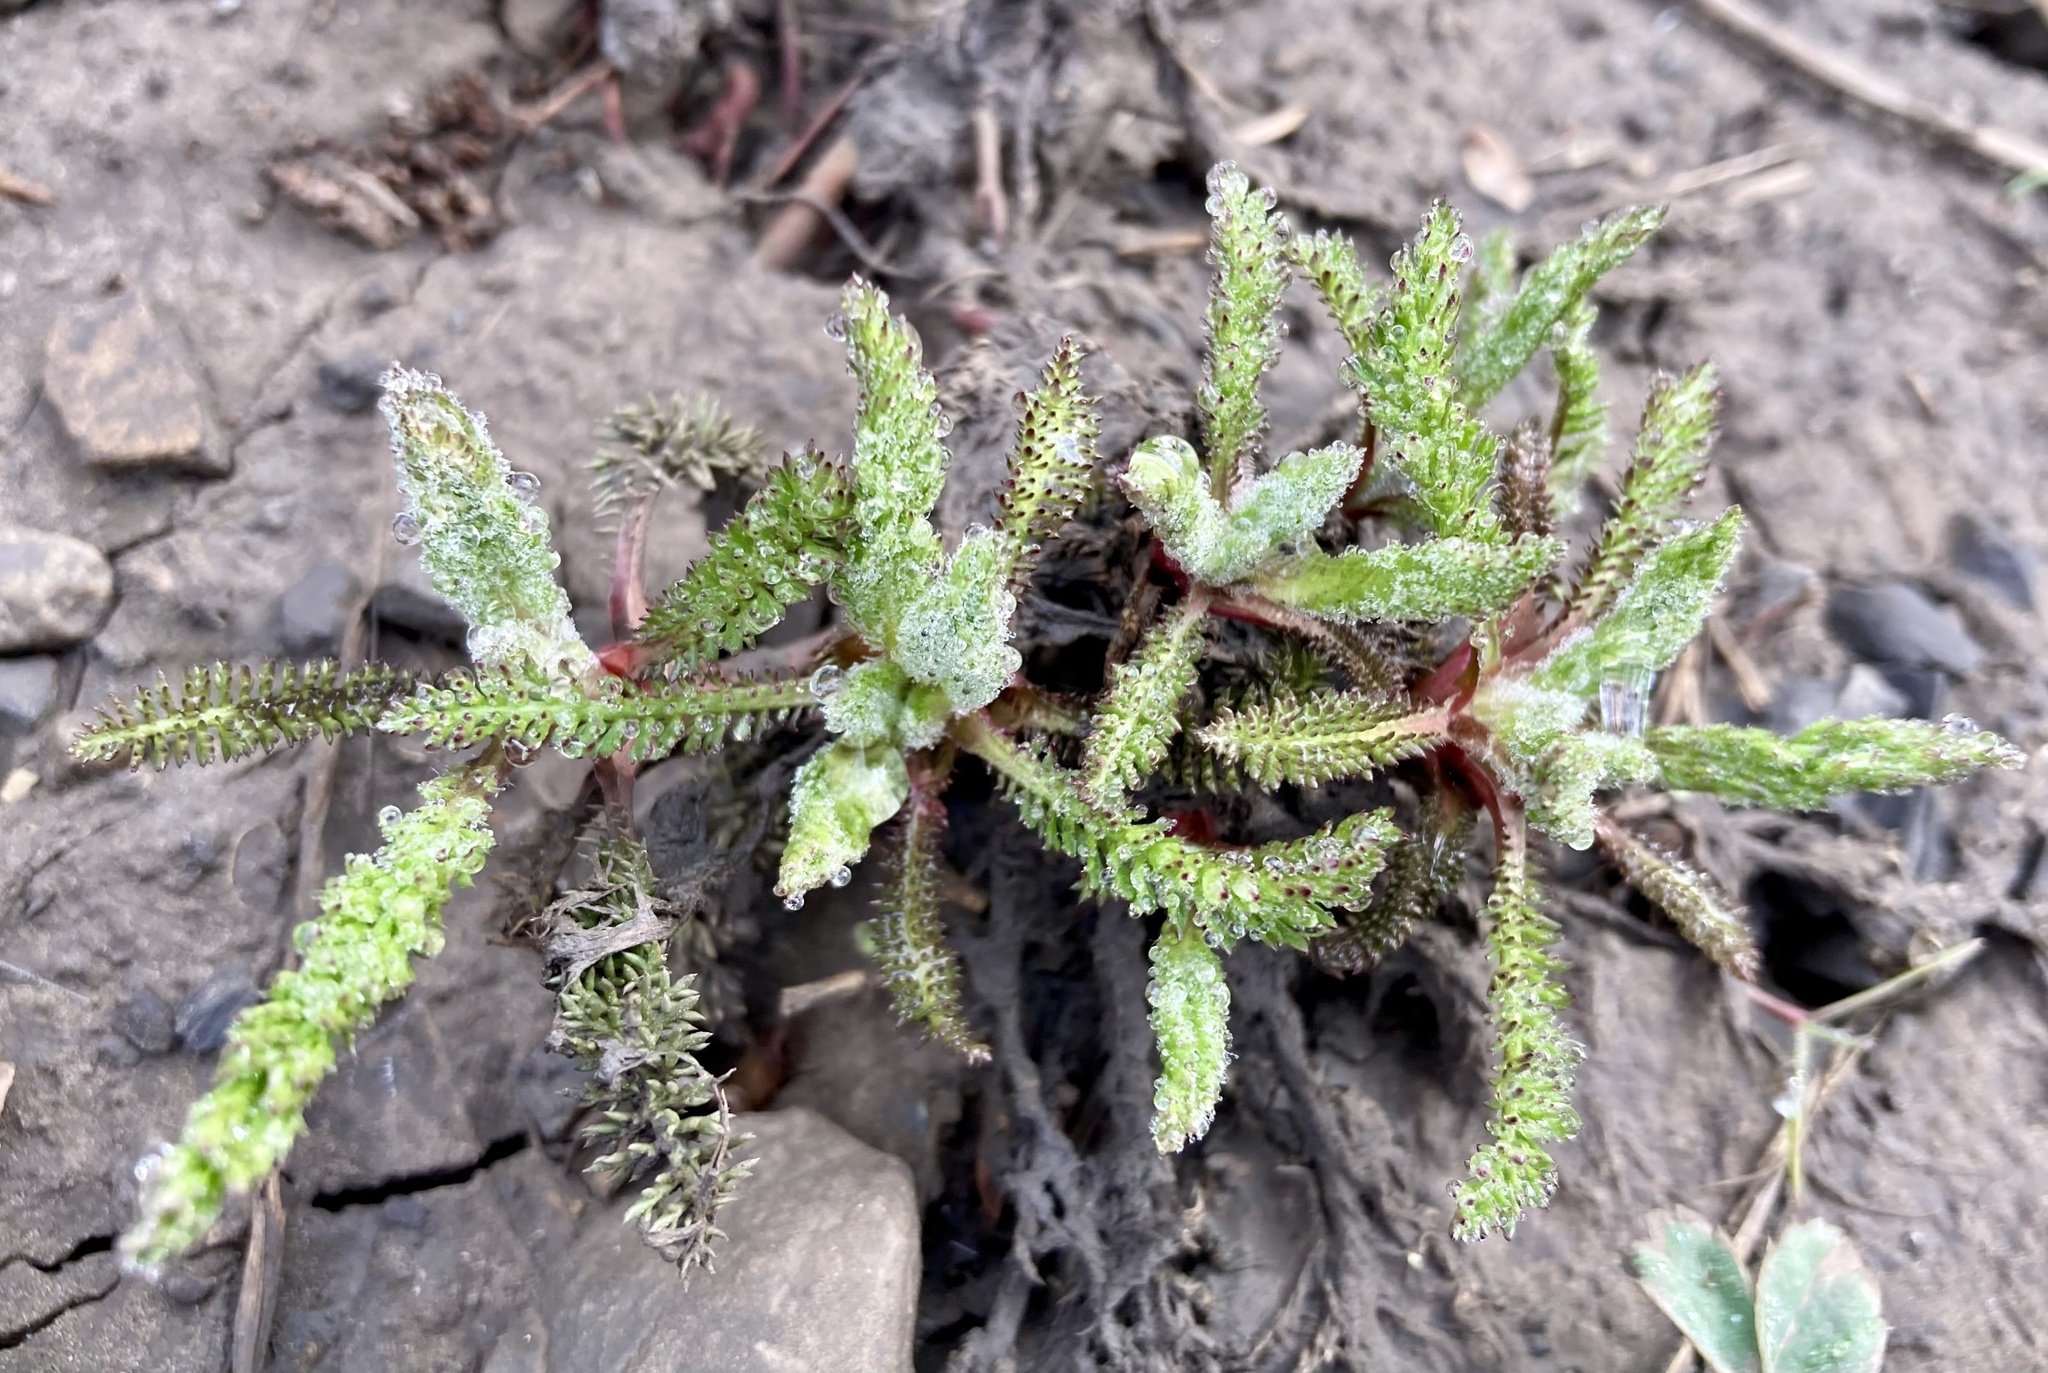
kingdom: Plantae
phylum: Tracheophyta
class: Magnoliopsida
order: Asterales
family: Asteraceae
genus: Achillea
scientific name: Achillea millefolium
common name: Yarrow
